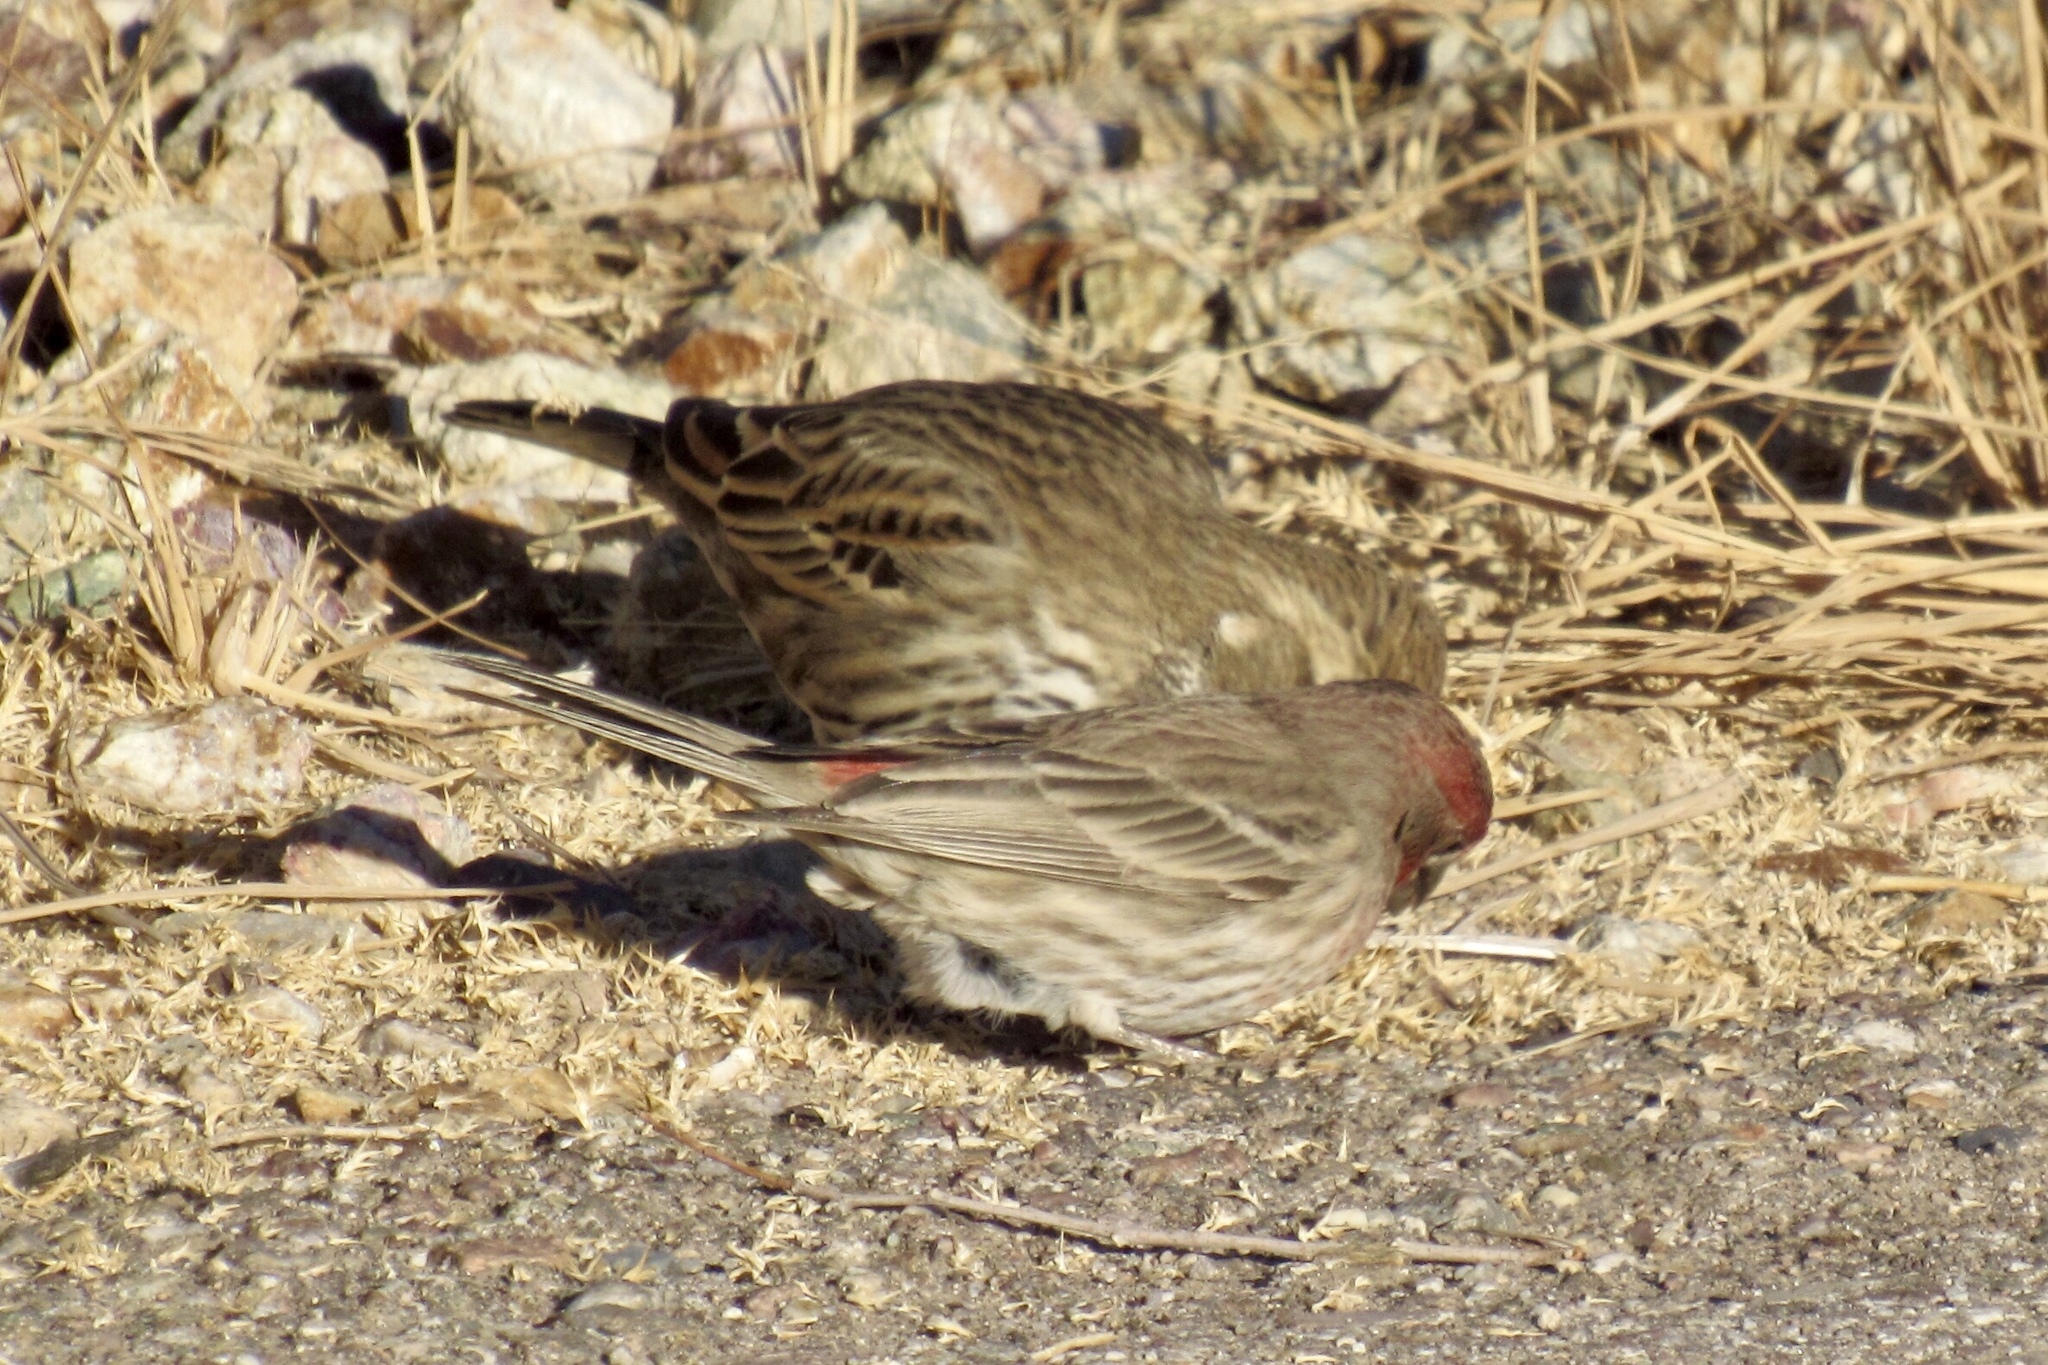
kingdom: Animalia
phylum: Chordata
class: Aves
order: Passeriformes
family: Fringillidae
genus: Haemorhous
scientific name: Haemorhous mexicanus
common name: House finch
